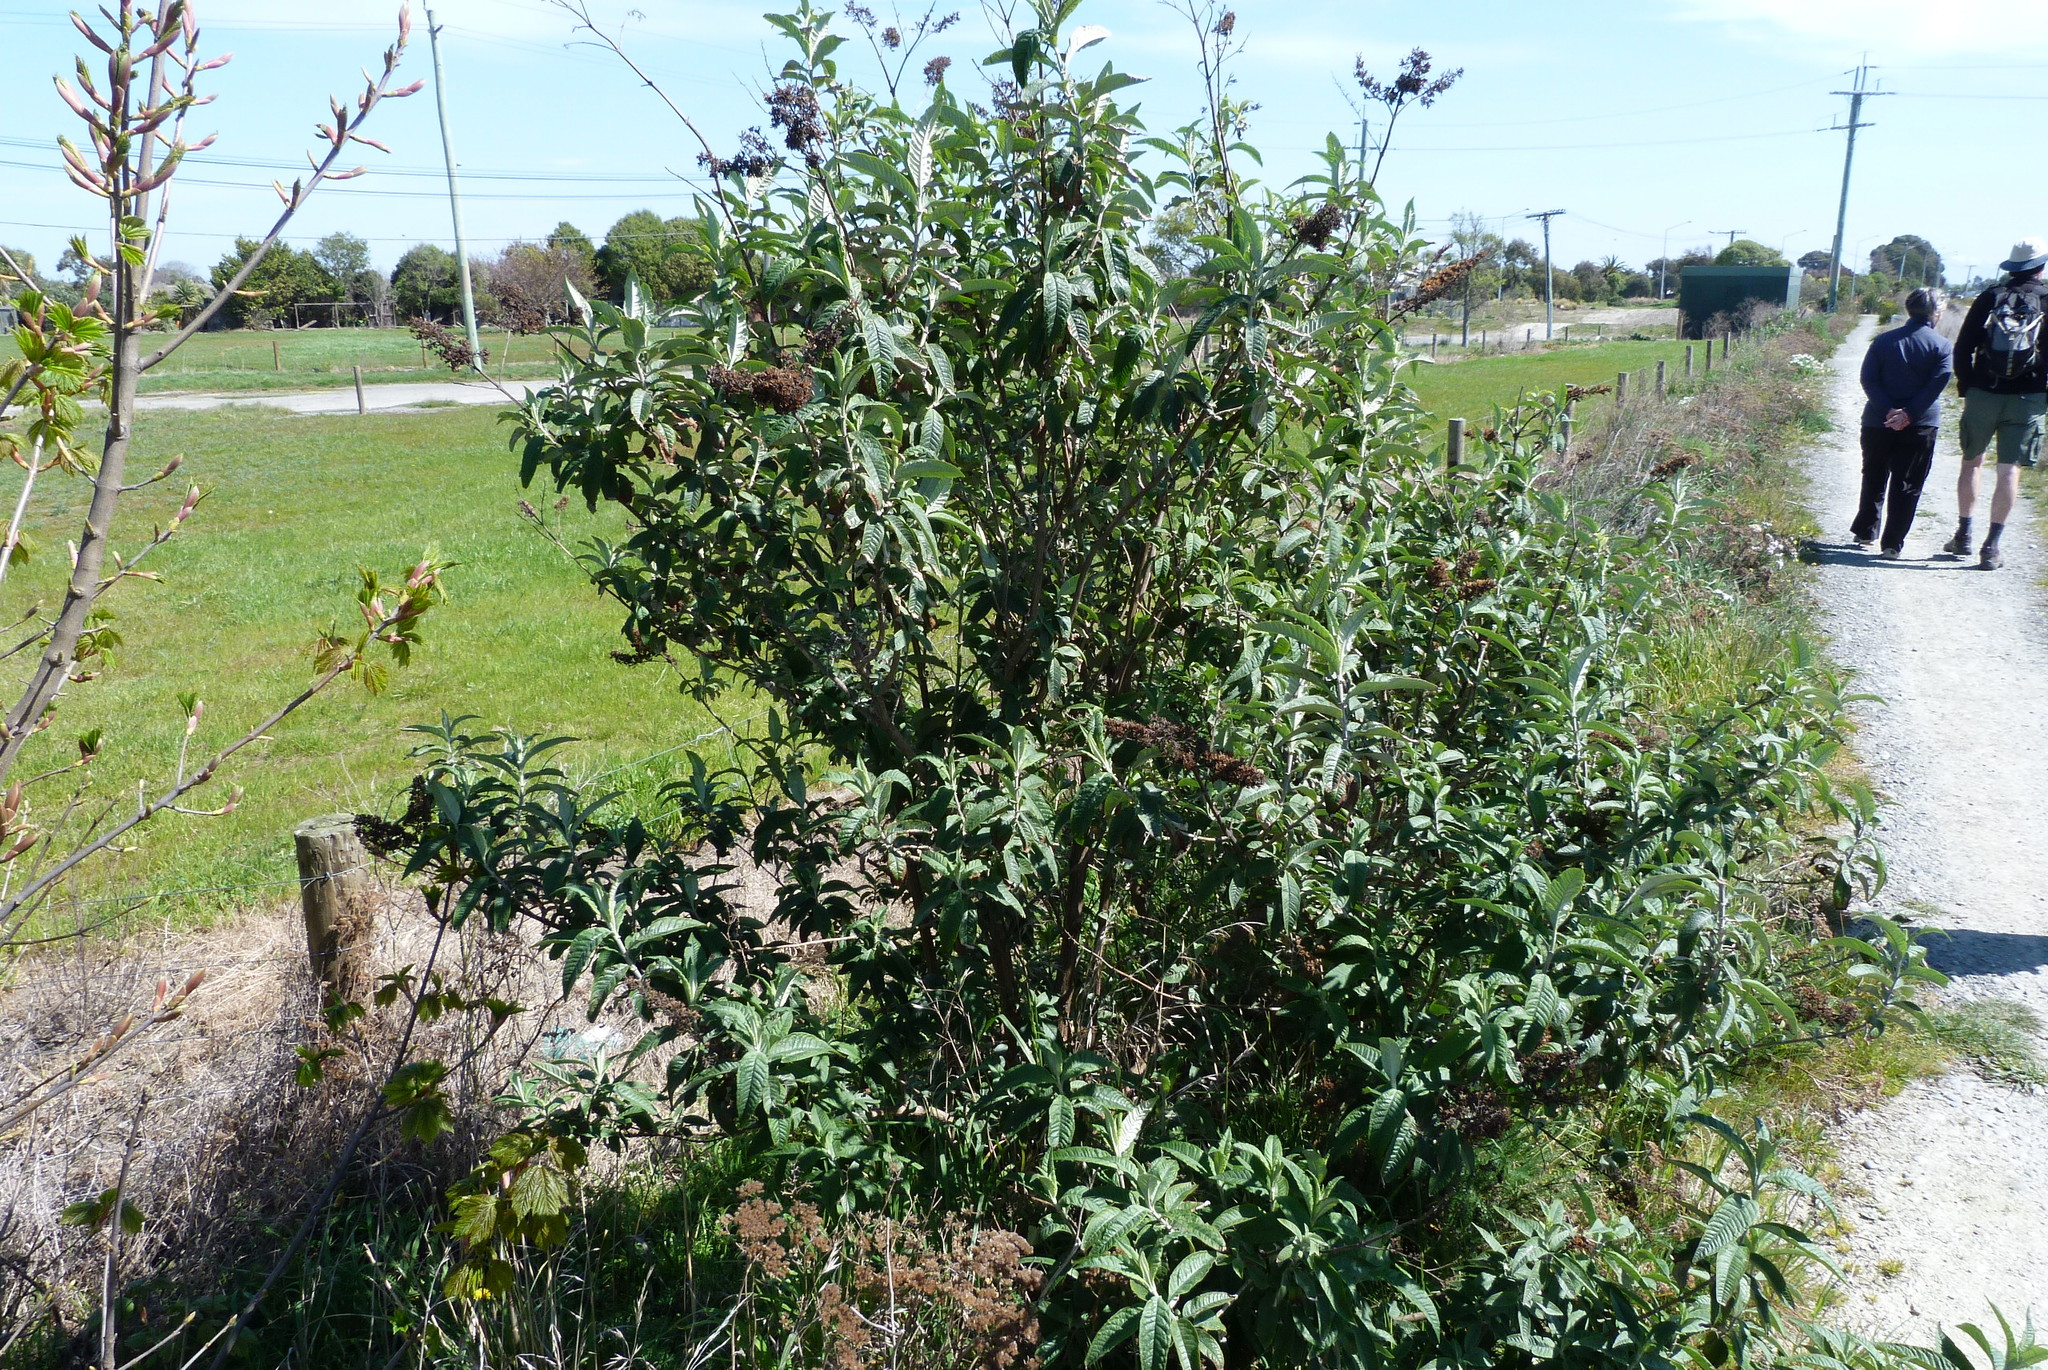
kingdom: Plantae
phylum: Tracheophyta
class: Magnoliopsida
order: Lamiales
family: Scrophulariaceae
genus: Buddleja
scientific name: Buddleja davidii
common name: Butterfly-bush
